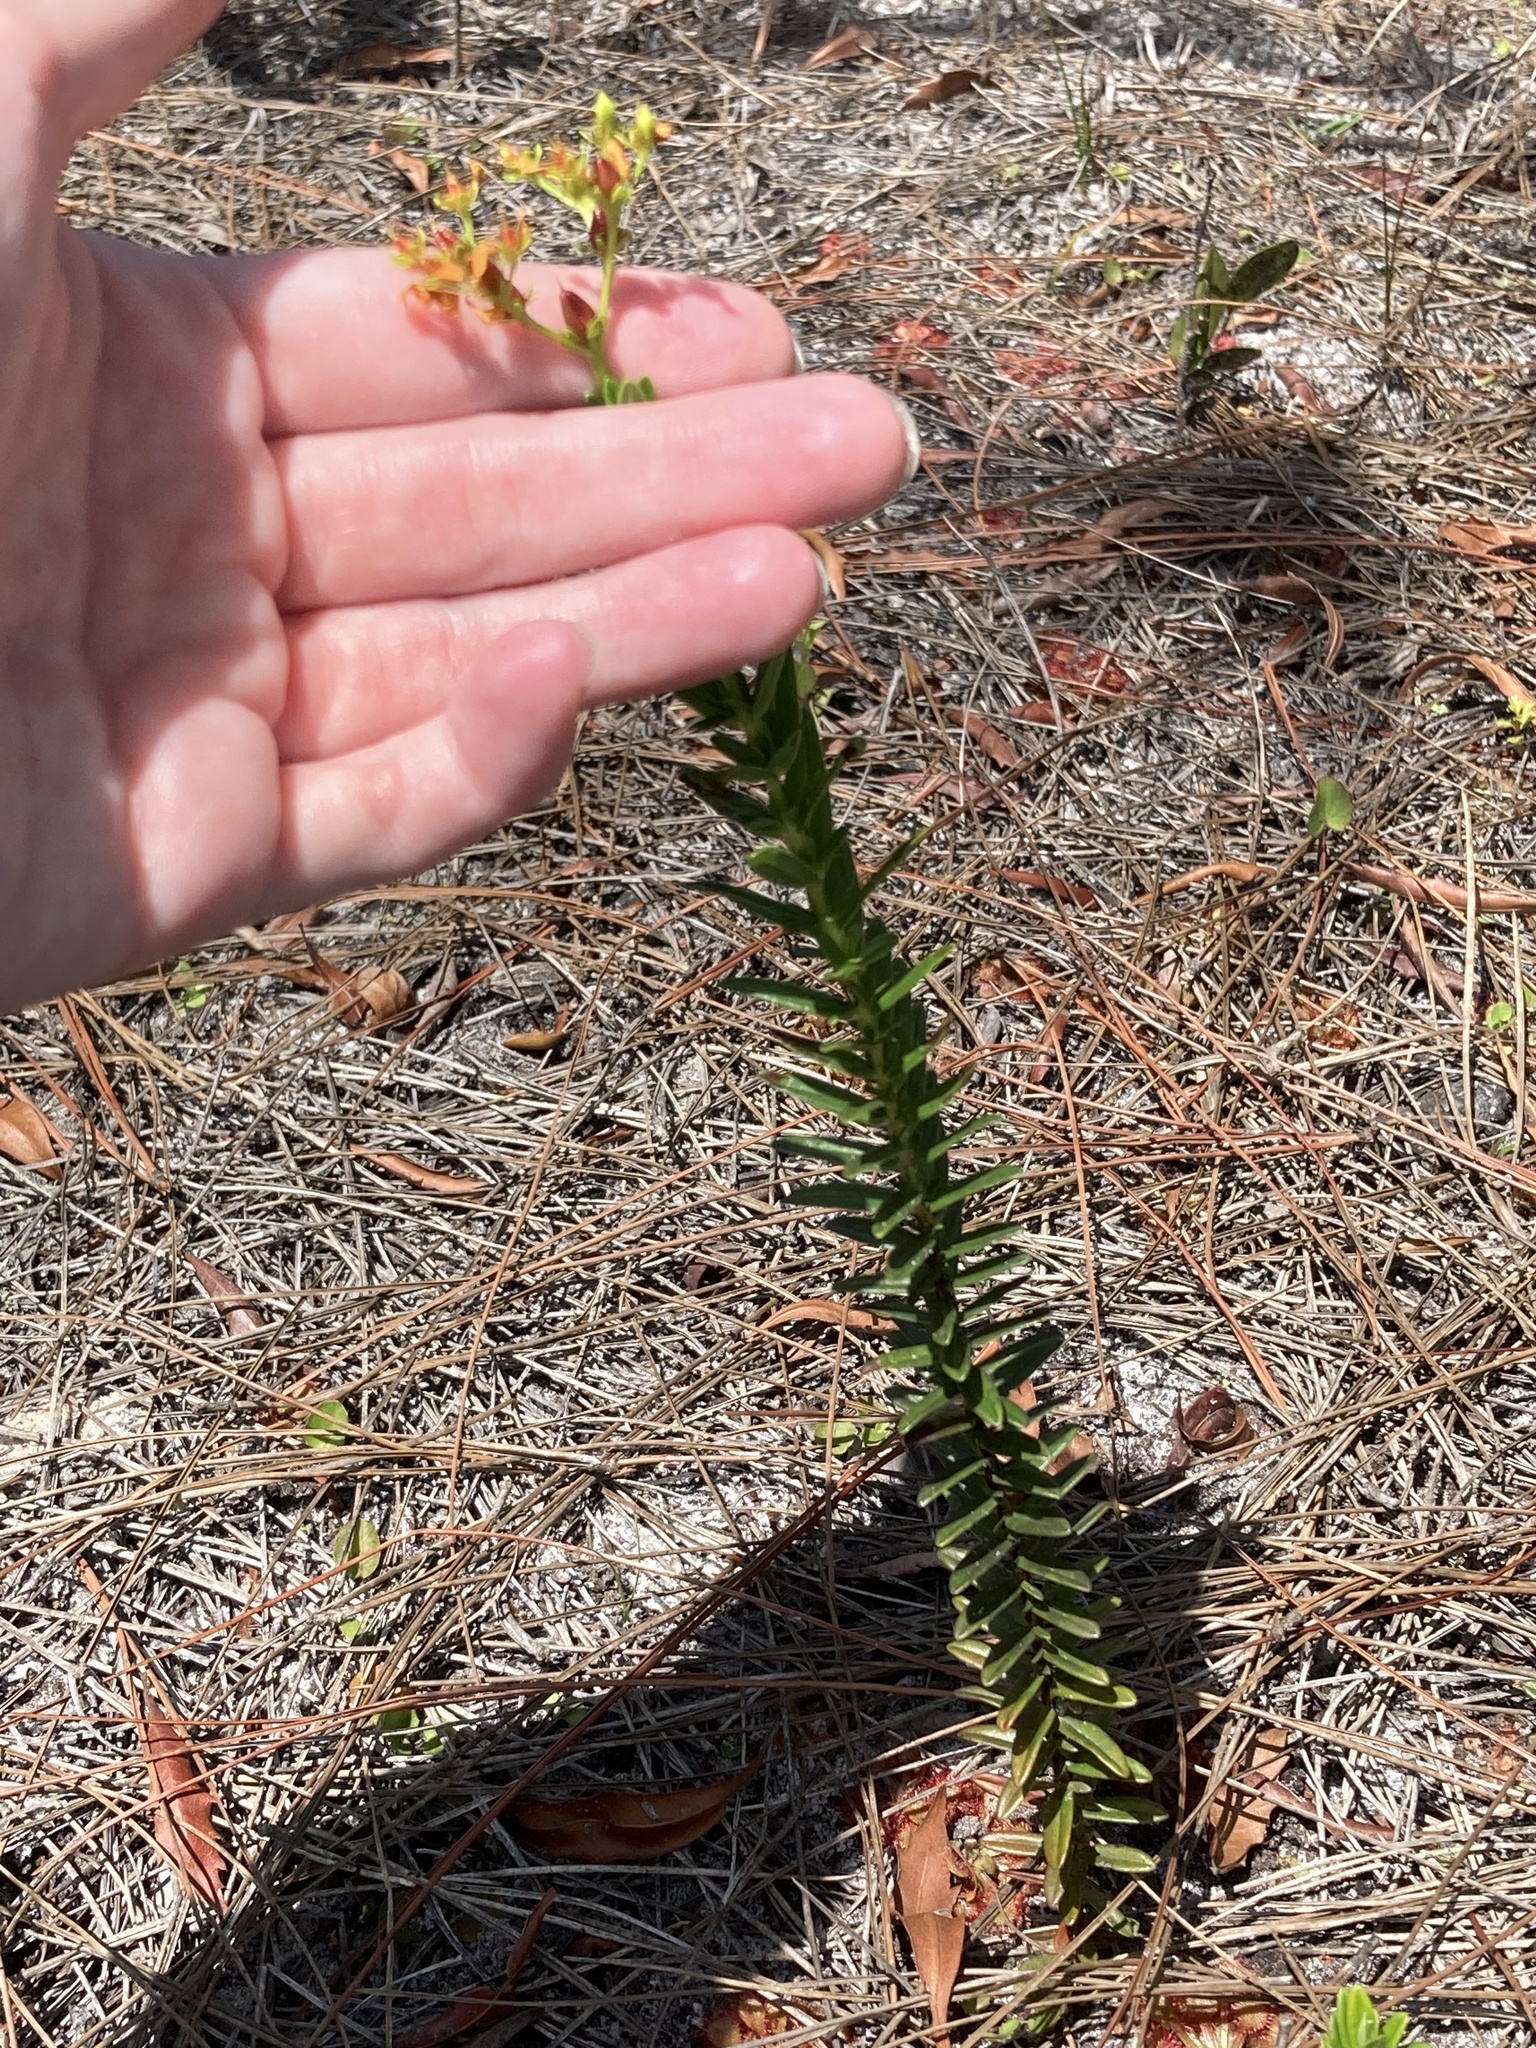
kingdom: Plantae
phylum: Tracheophyta
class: Magnoliopsida
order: Malpighiales
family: Hypericaceae
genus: Hypericum
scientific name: Hypericum cistifolium
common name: Round-pod st. john's-wort
